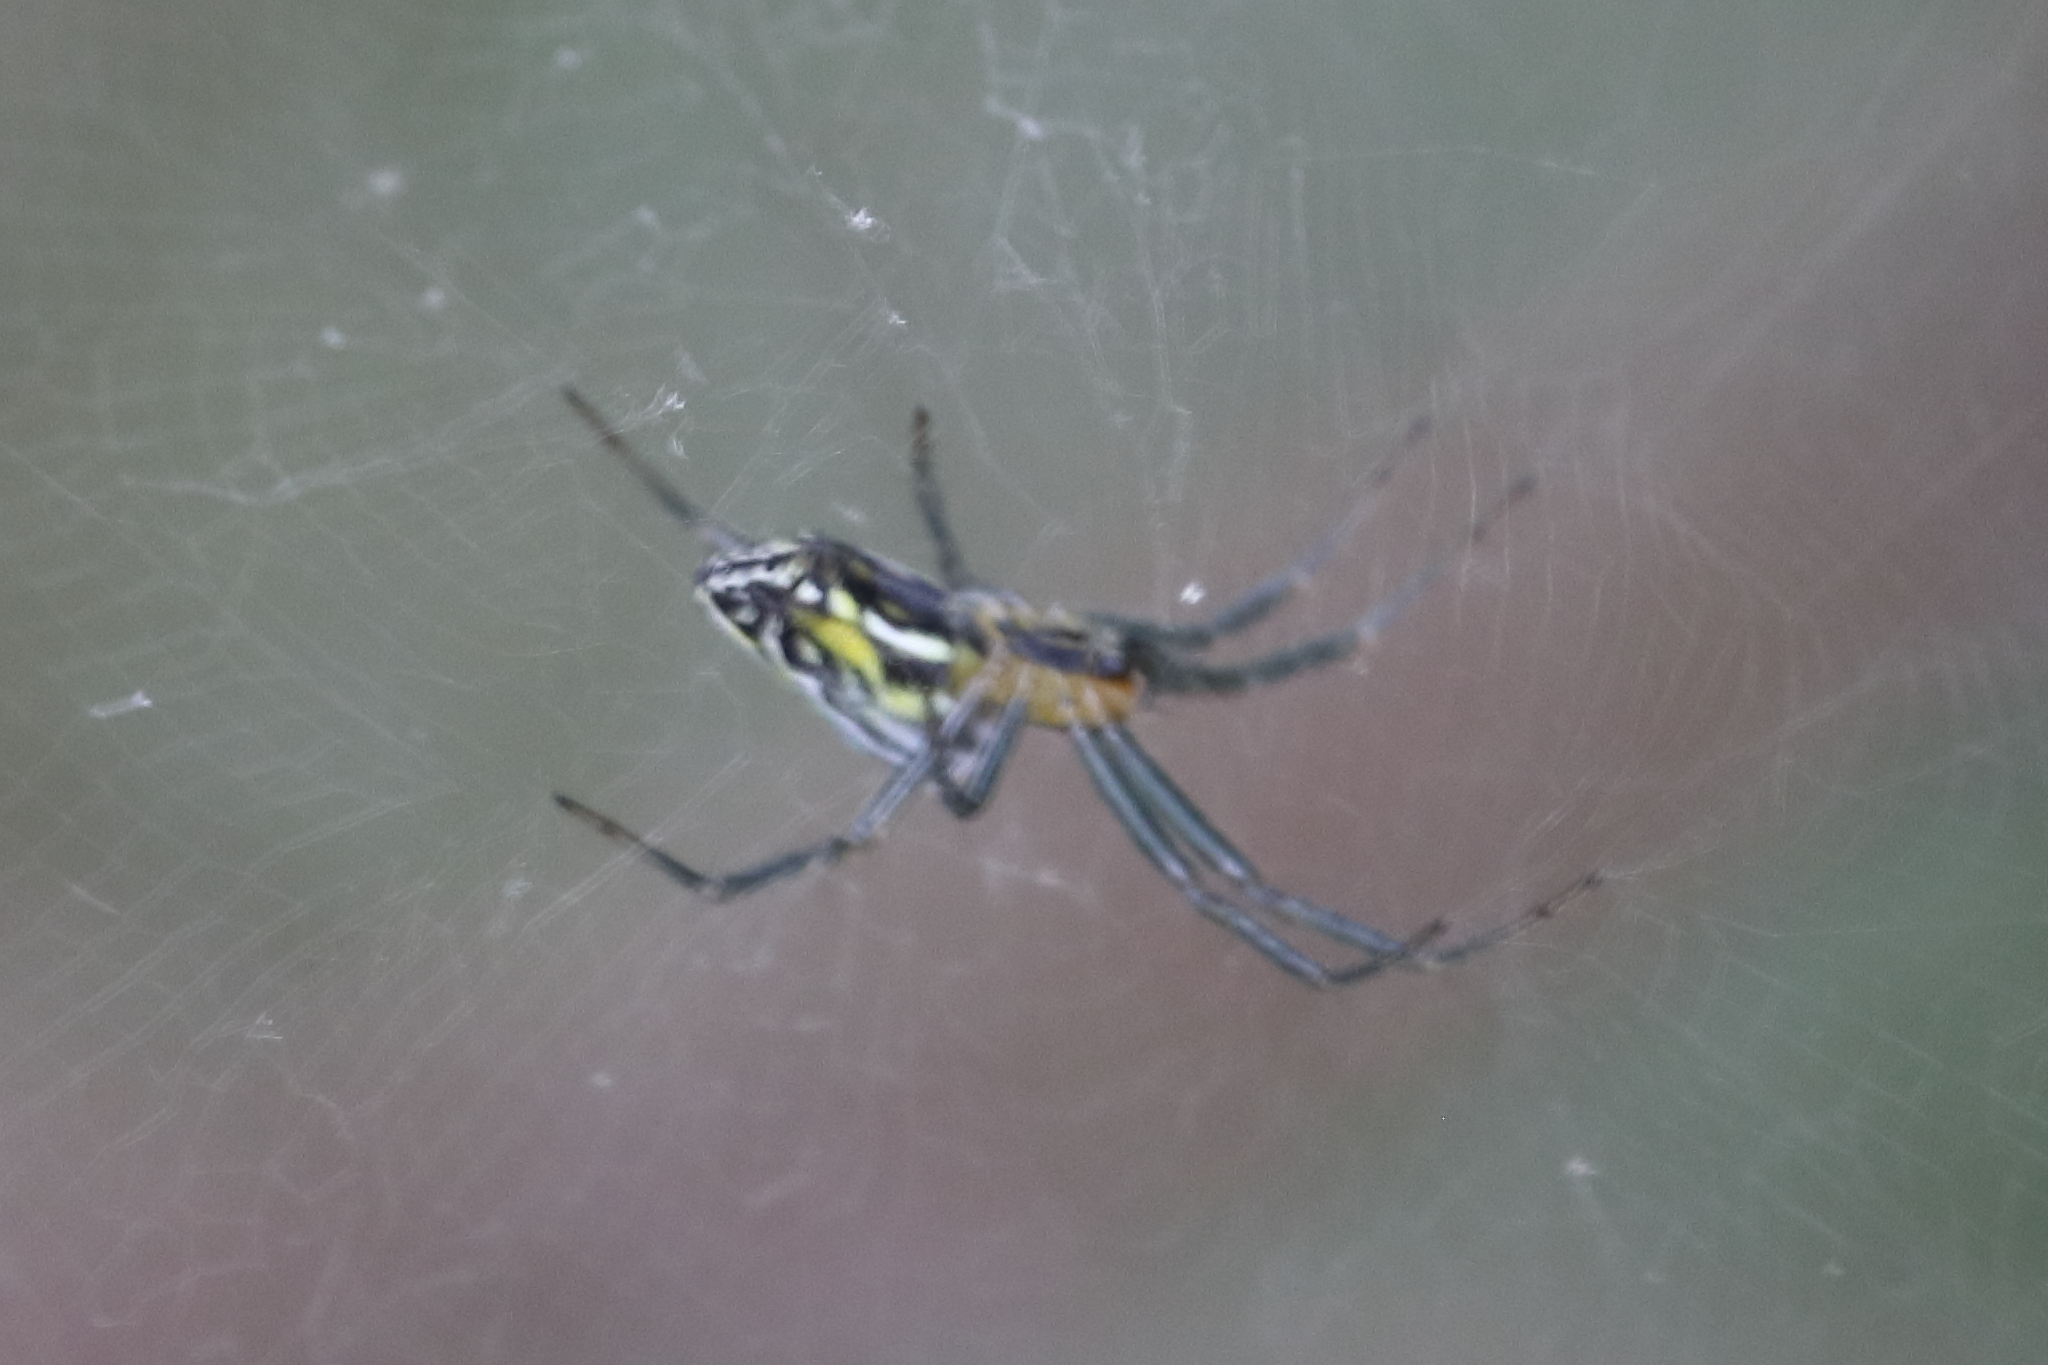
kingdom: Animalia
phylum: Arthropoda
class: Arachnida
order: Araneae
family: Araneidae
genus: Mecynogea
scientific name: Mecynogea lemniscata
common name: Orb weavers
